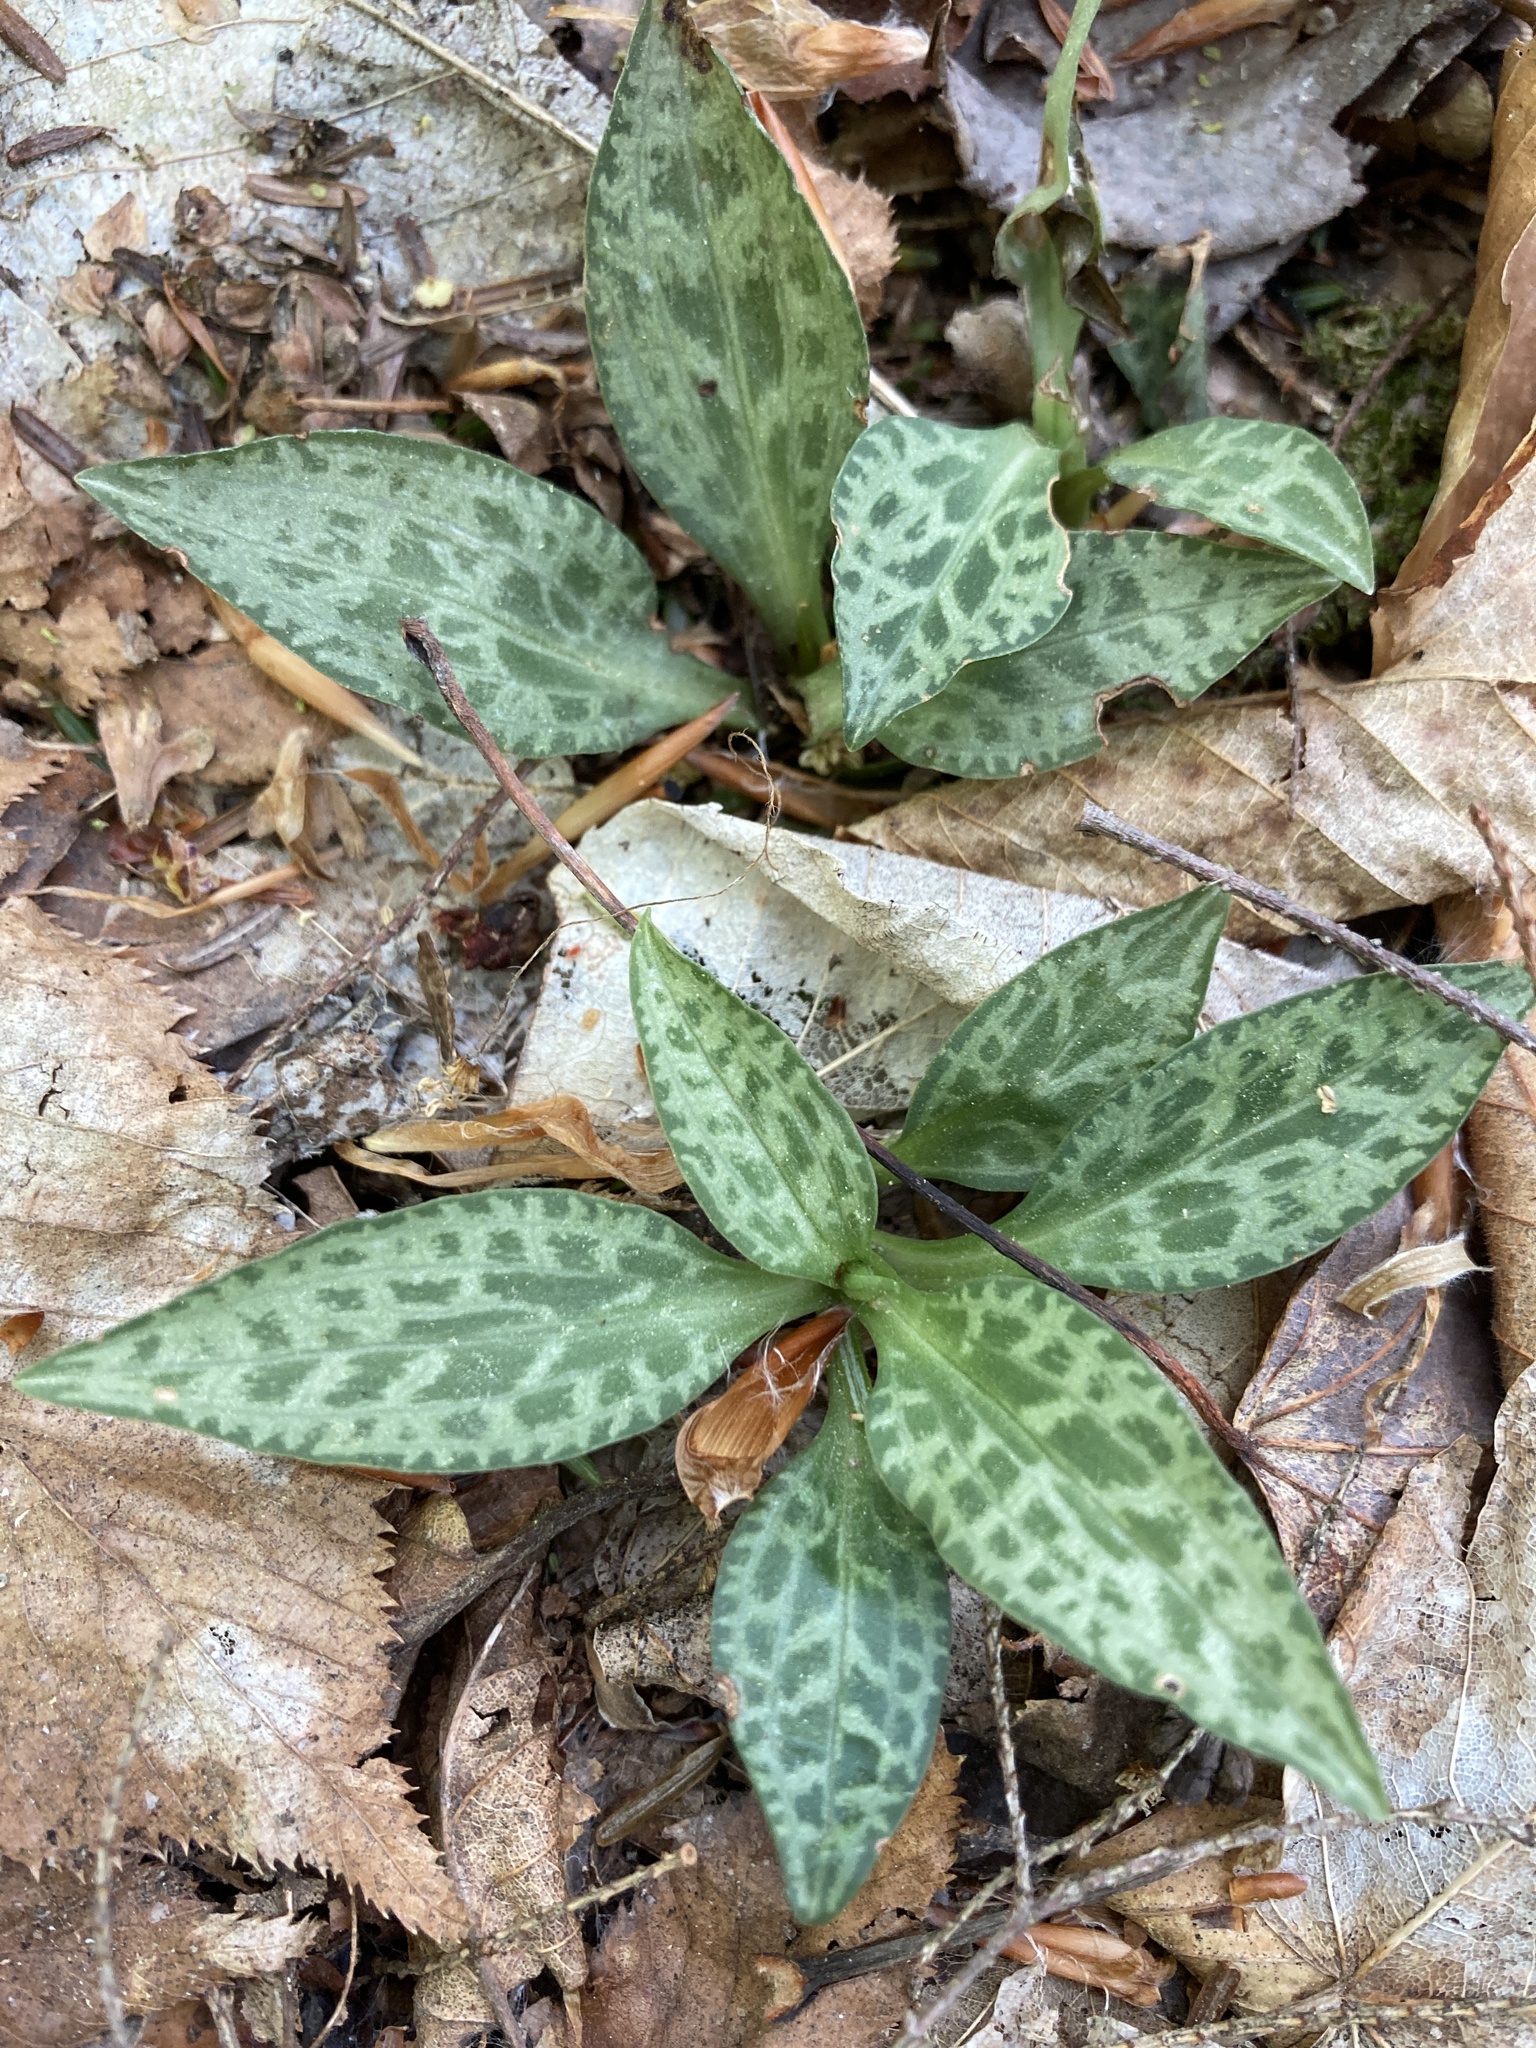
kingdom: Plantae
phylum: Tracheophyta
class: Liliopsida
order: Asparagales
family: Orchidaceae
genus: Goodyera
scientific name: Goodyera tesselata
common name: Checkered rattlesnake-plantain
